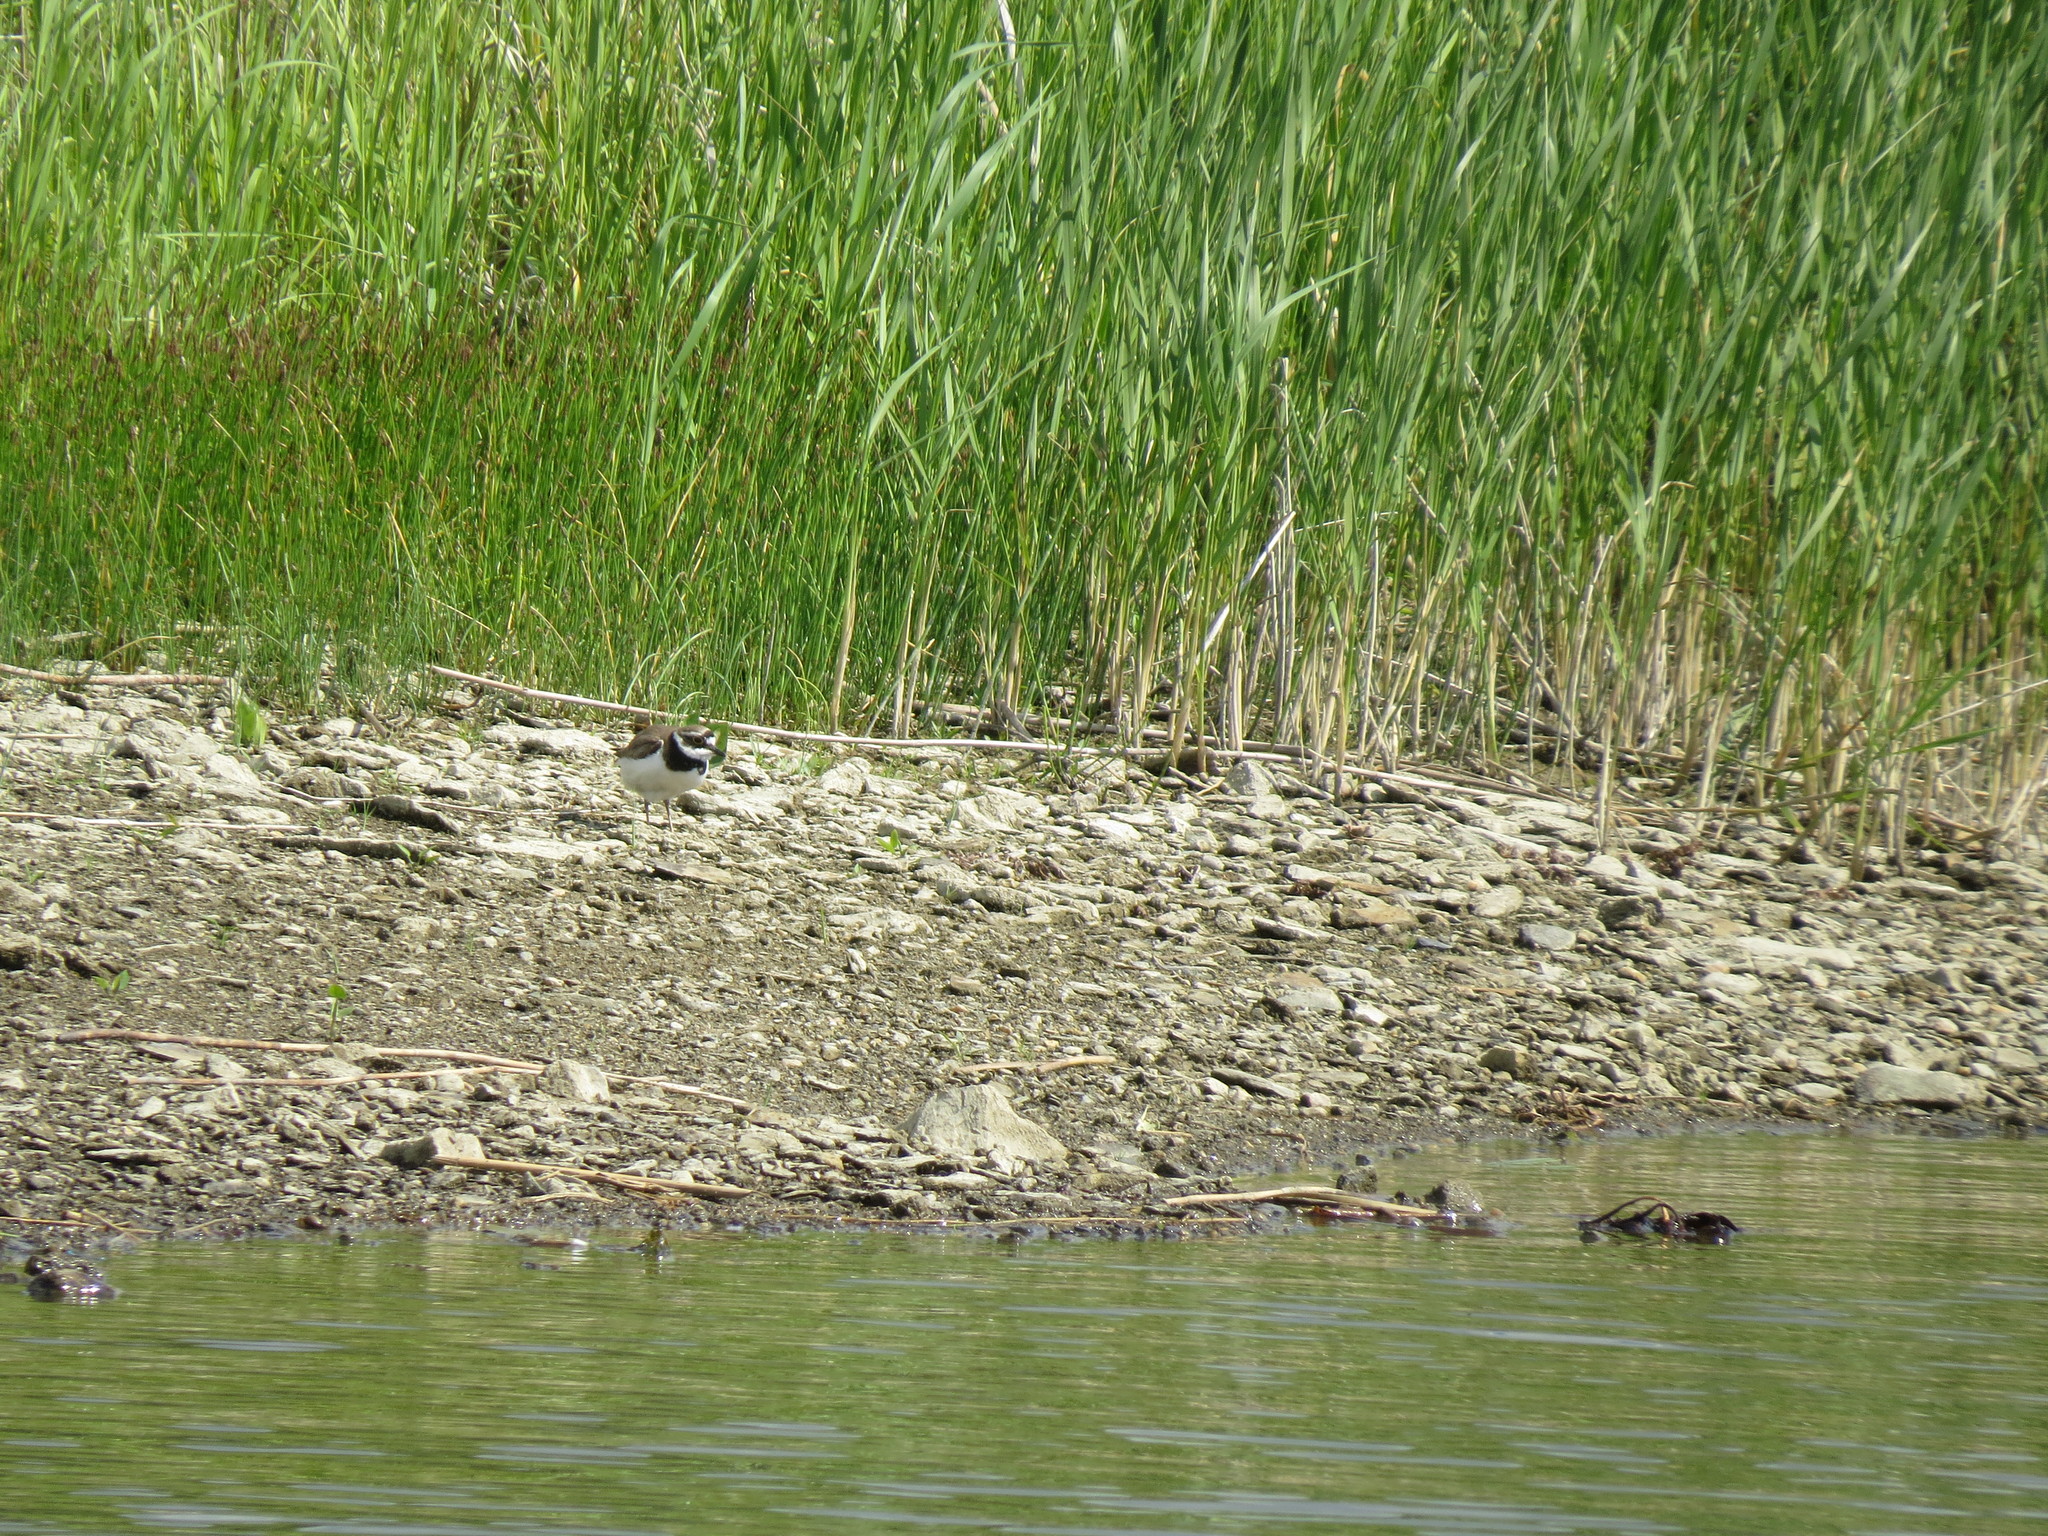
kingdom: Animalia
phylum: Chordata
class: Aves
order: Charadriiformes
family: Charadriidae
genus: Charadrius
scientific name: Charadrius dubius
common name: Little ringed plover
